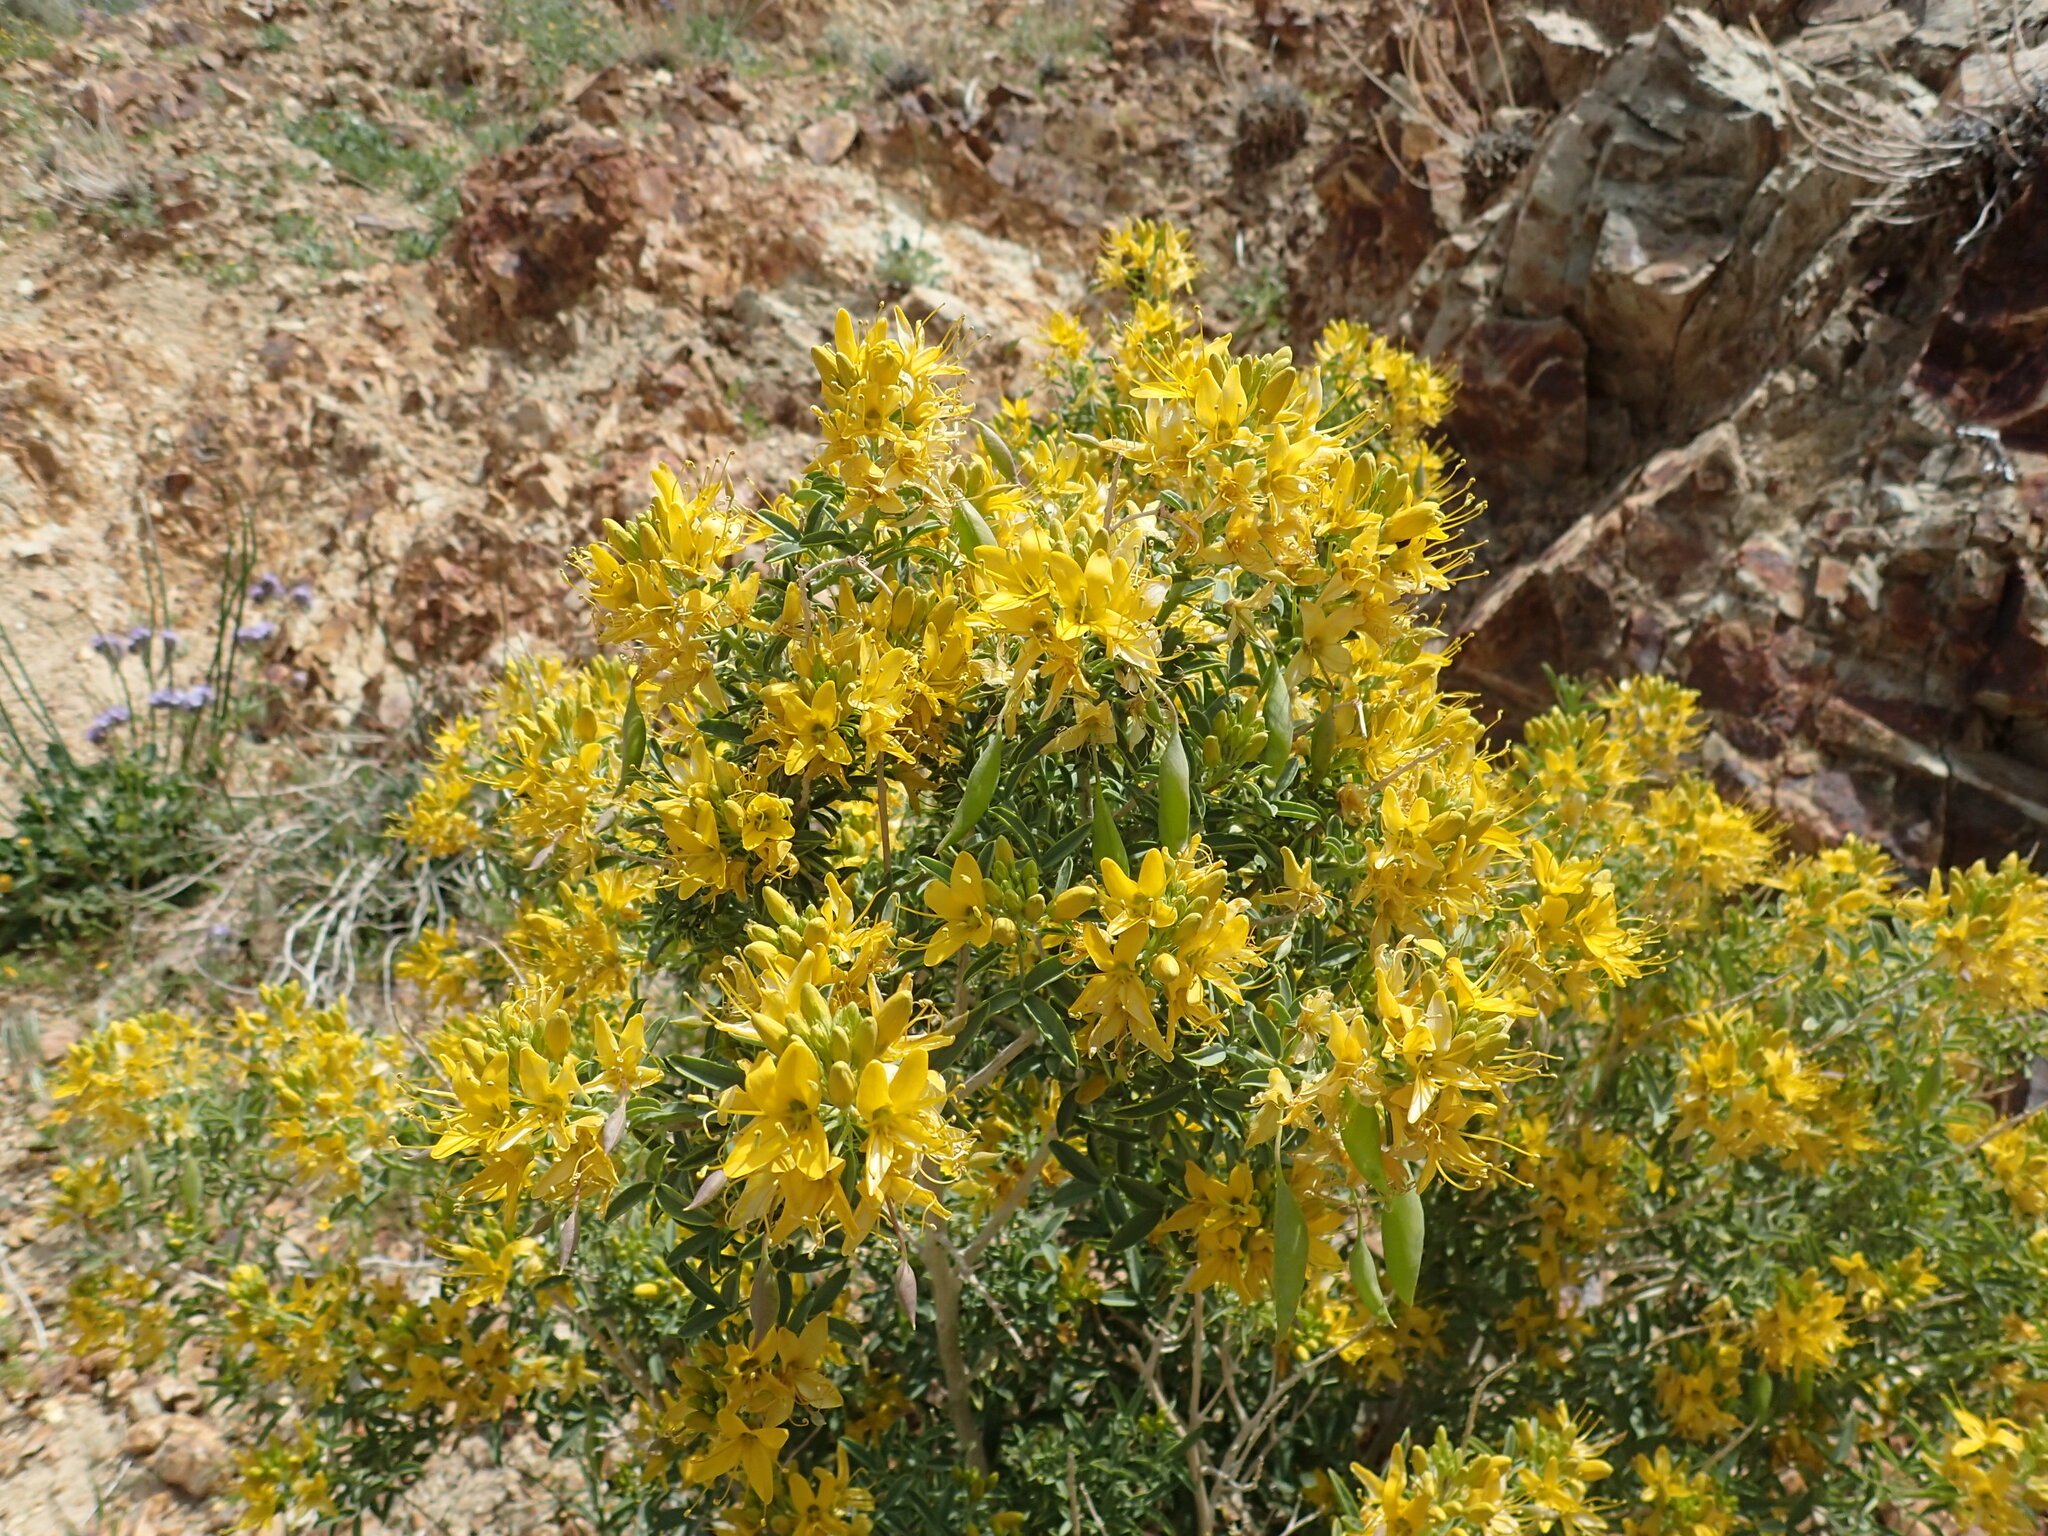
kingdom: Plantae
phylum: Tracheophyta
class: Magnoliopsida
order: Brassicales
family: Cleomaceae
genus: Cleomella
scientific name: Cleomella arborea
